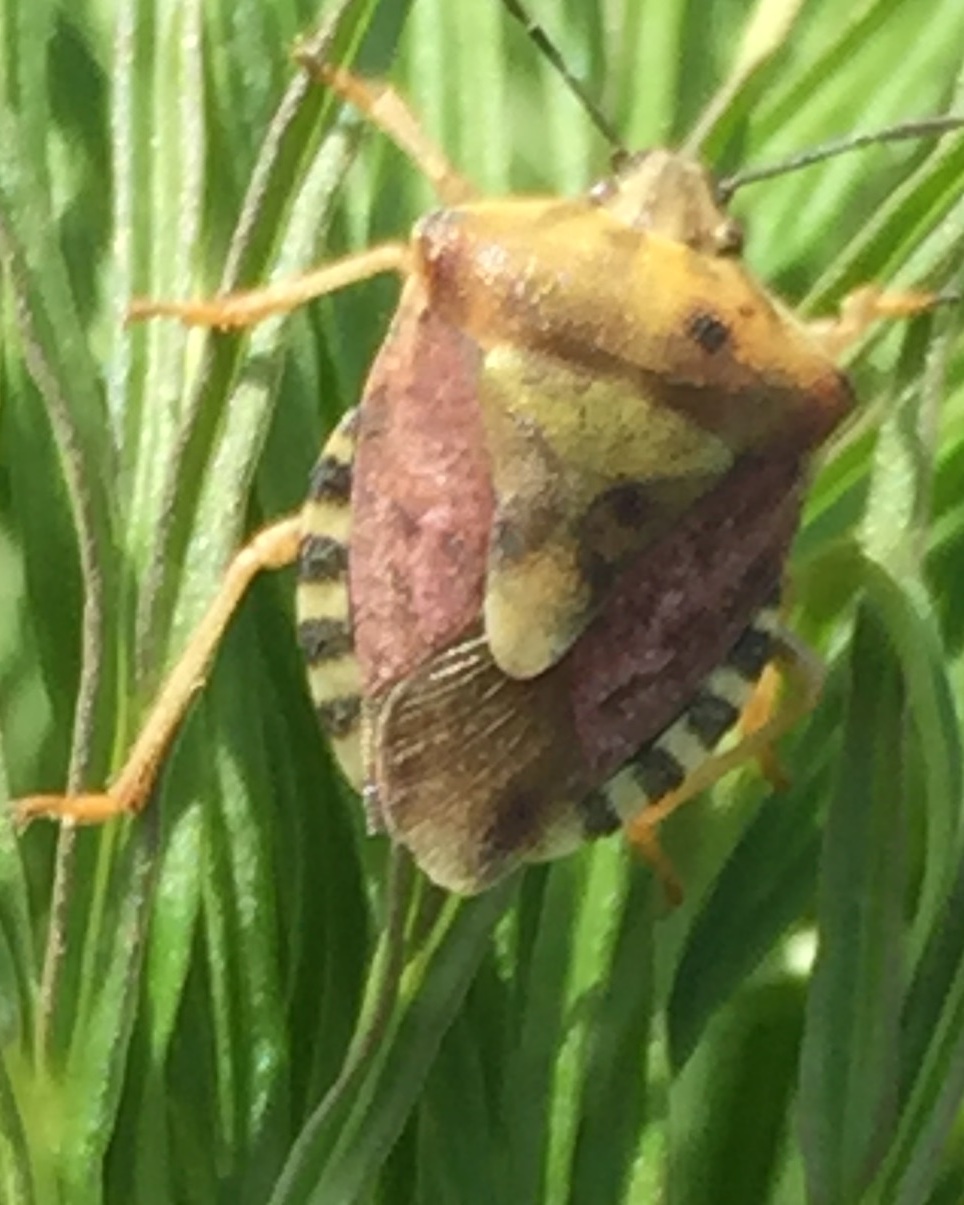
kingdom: Animalia
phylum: Arthropoda
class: Insecta
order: Hemiptera
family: Pentatomidae
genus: Carpocoris
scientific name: Carpocoris purpureipennis
